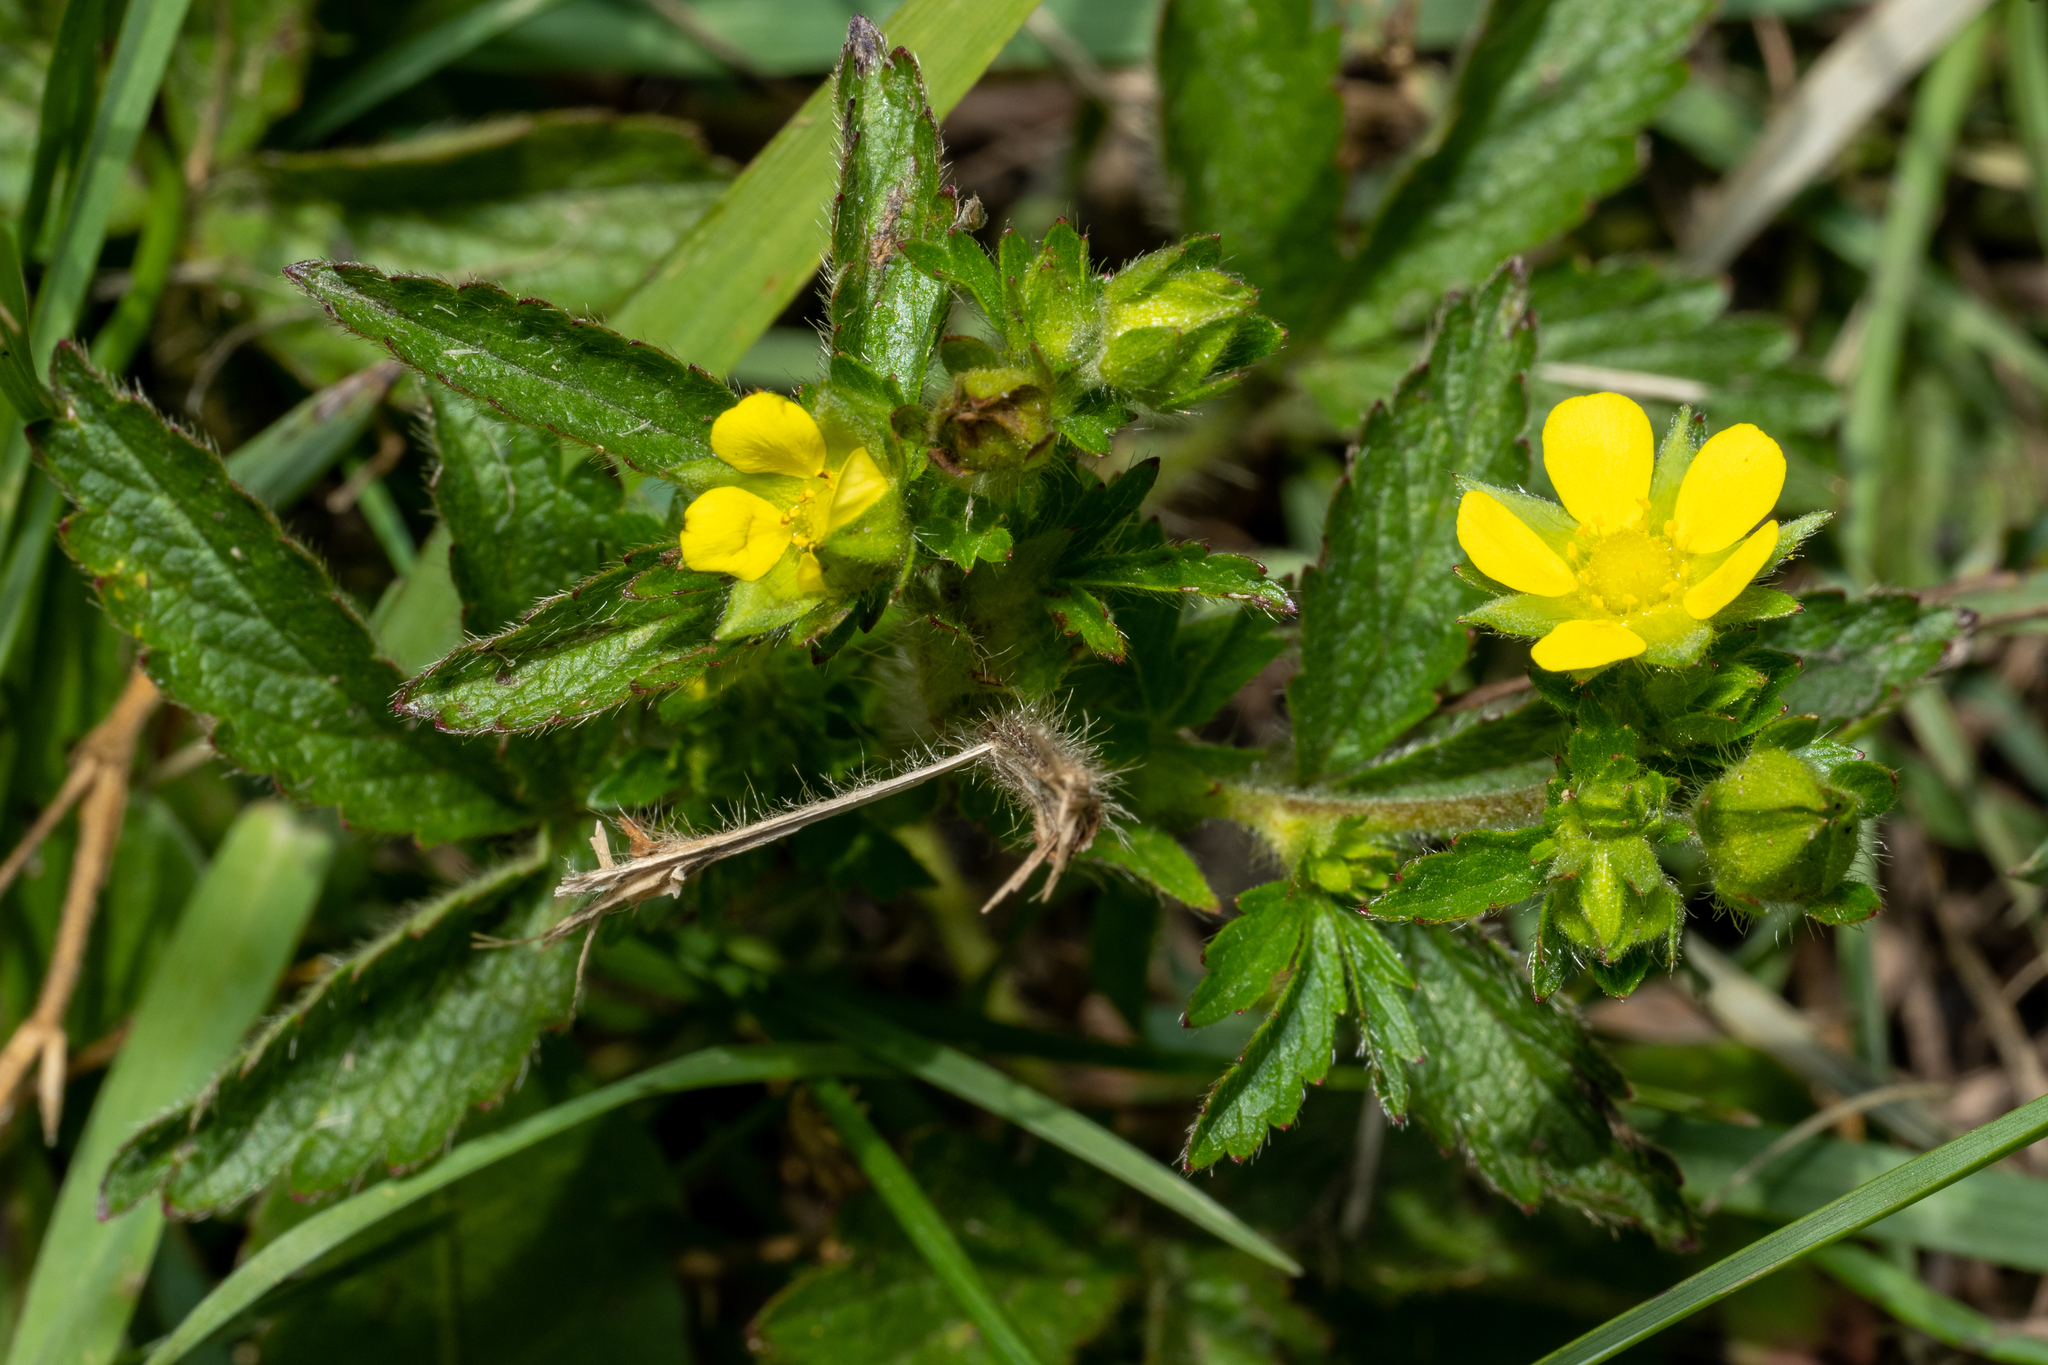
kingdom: Plantae
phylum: Tracheophyta
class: Magnoliopsida
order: Rosales
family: Rosaceae
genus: Potentilla
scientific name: Potentilla norvegica
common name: Ternate-leaved cinquefoil
